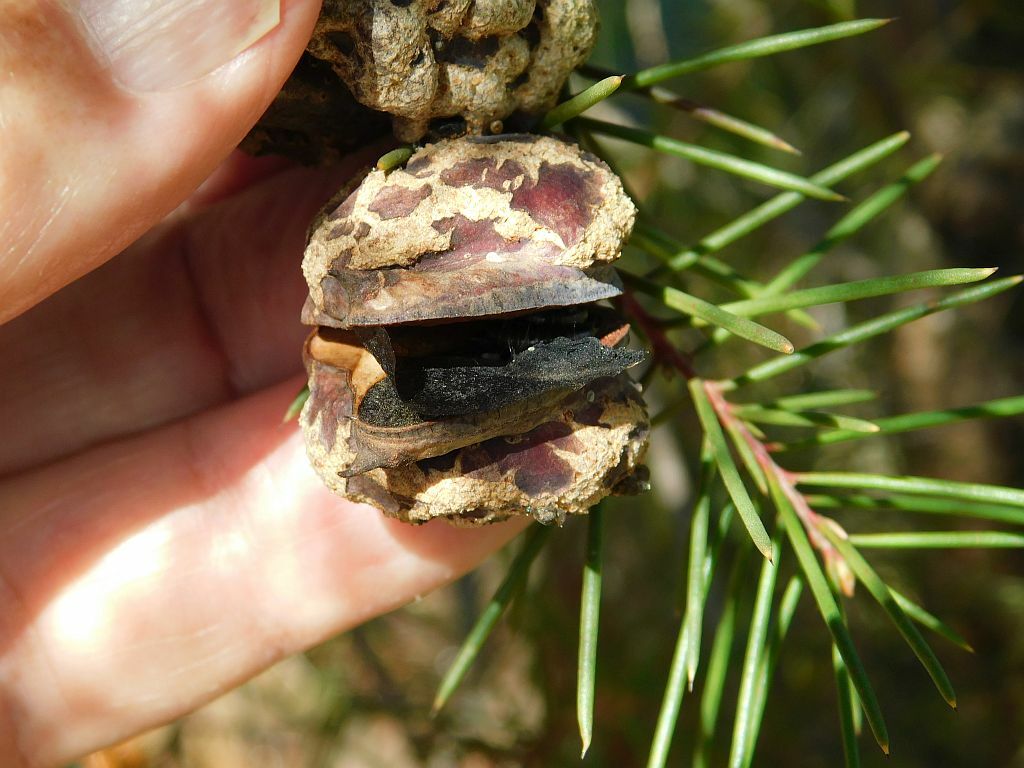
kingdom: Animalia
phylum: Arthropoda
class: Insecta
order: Coleoptera
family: Curculionidae
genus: Erytenna
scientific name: Erytenna consputa
